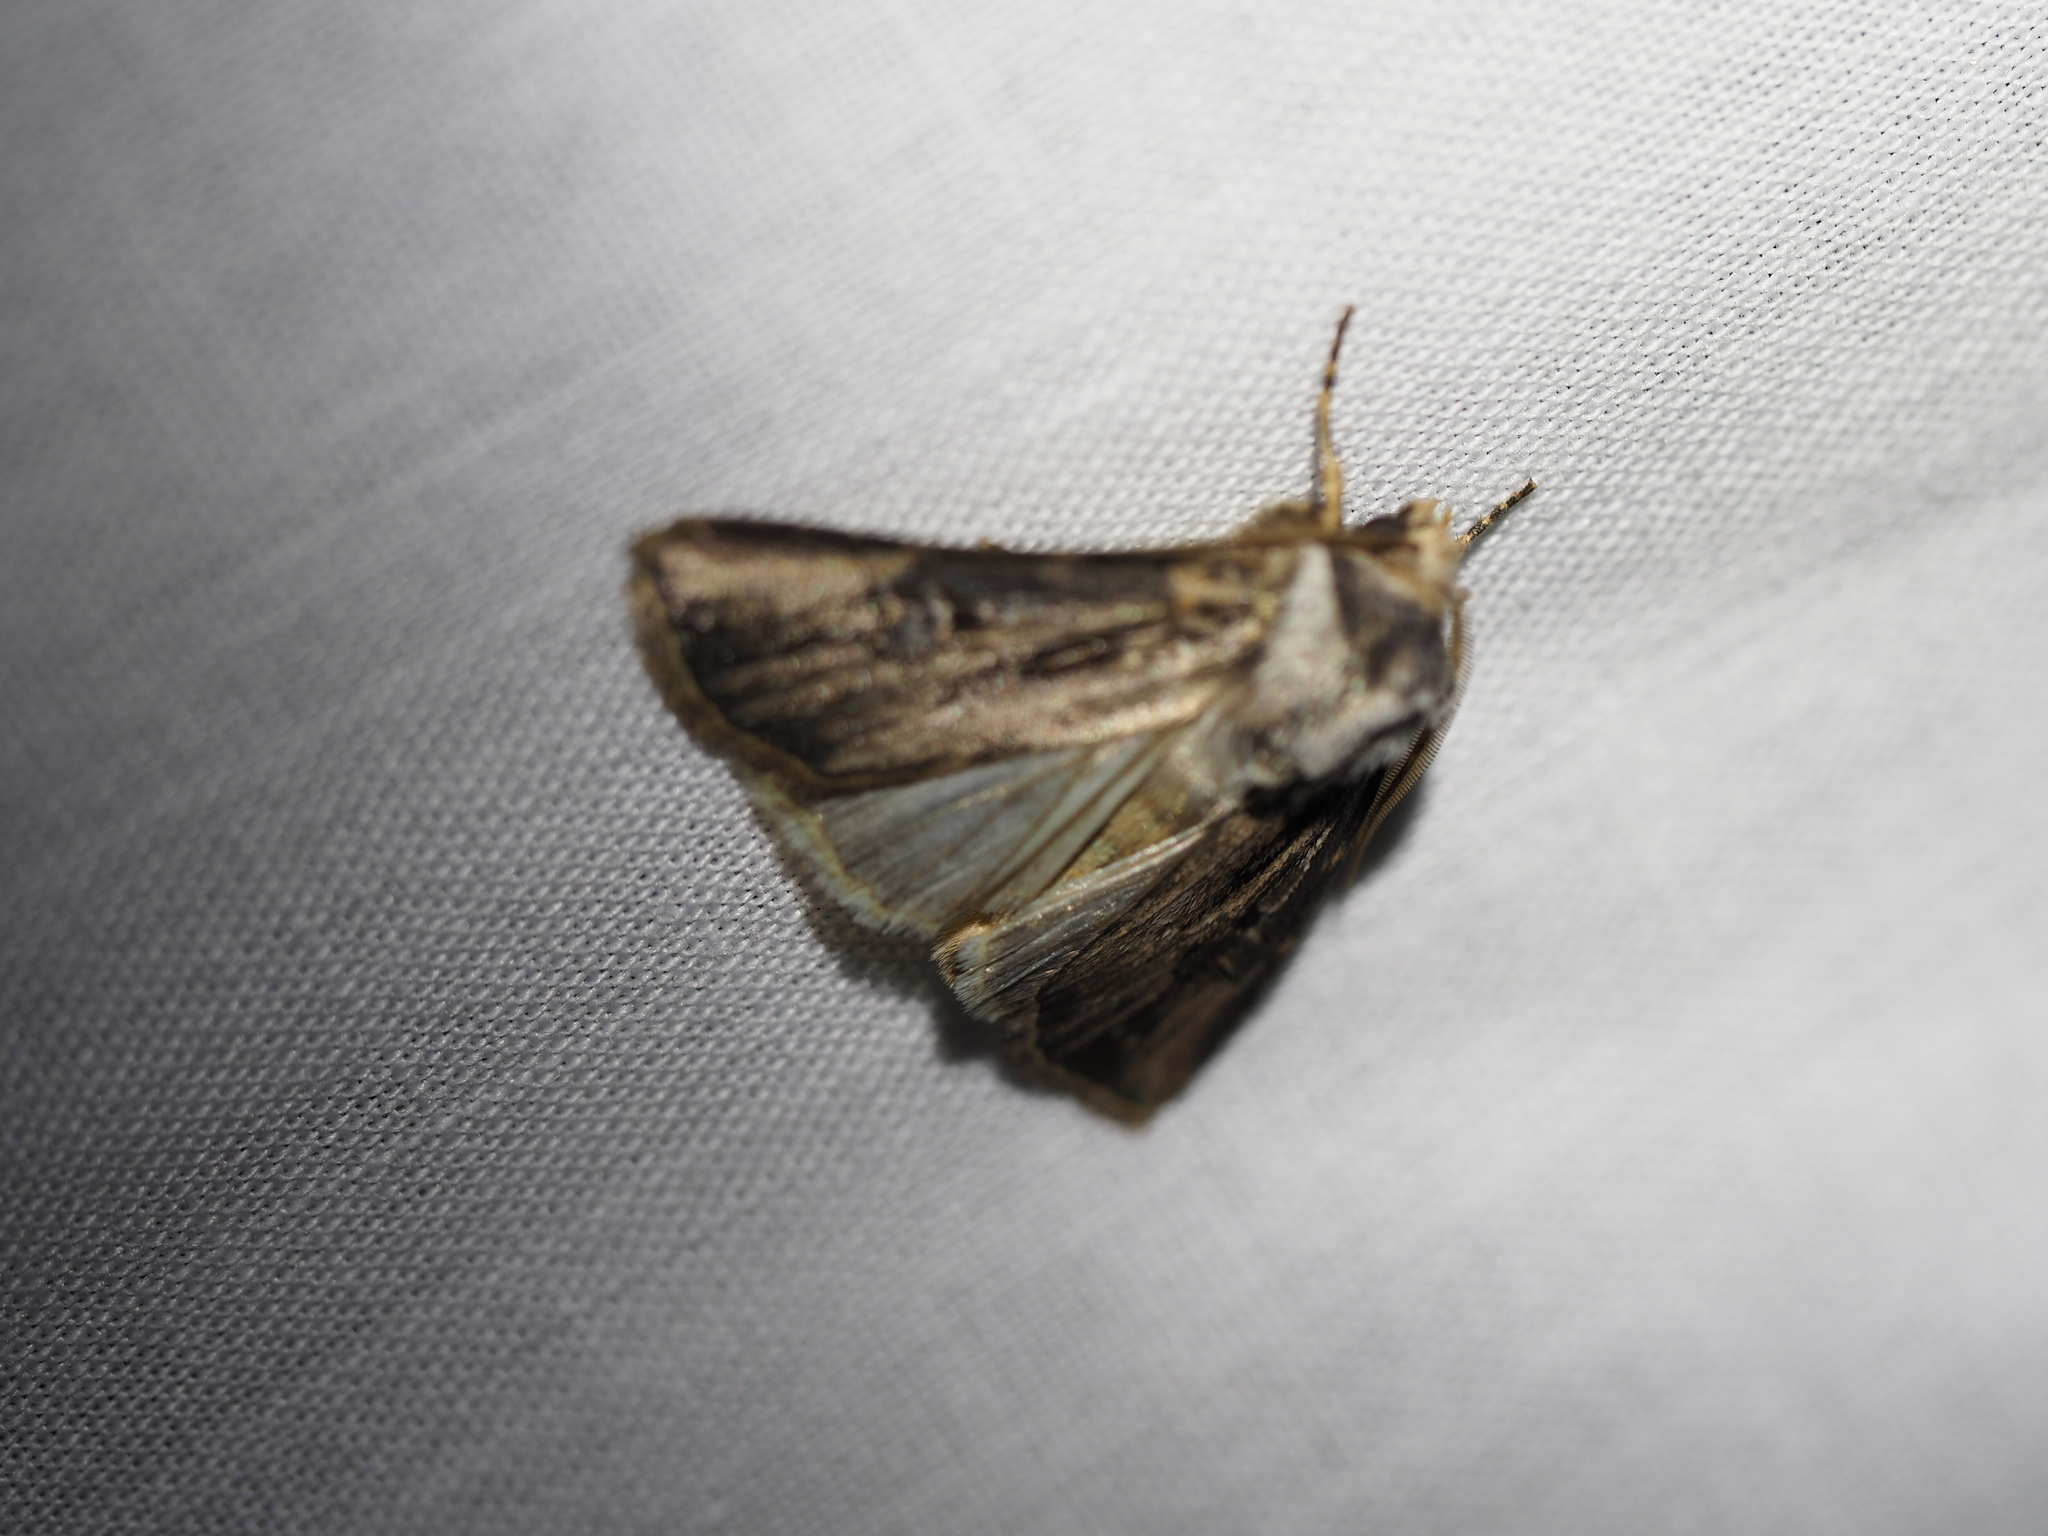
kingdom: Animalia
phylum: Arthropoda
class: Insecta
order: Lepidoptera
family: Noctuidae
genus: Agrotis
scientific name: Agrotis venerabilis
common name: Venerable dart
